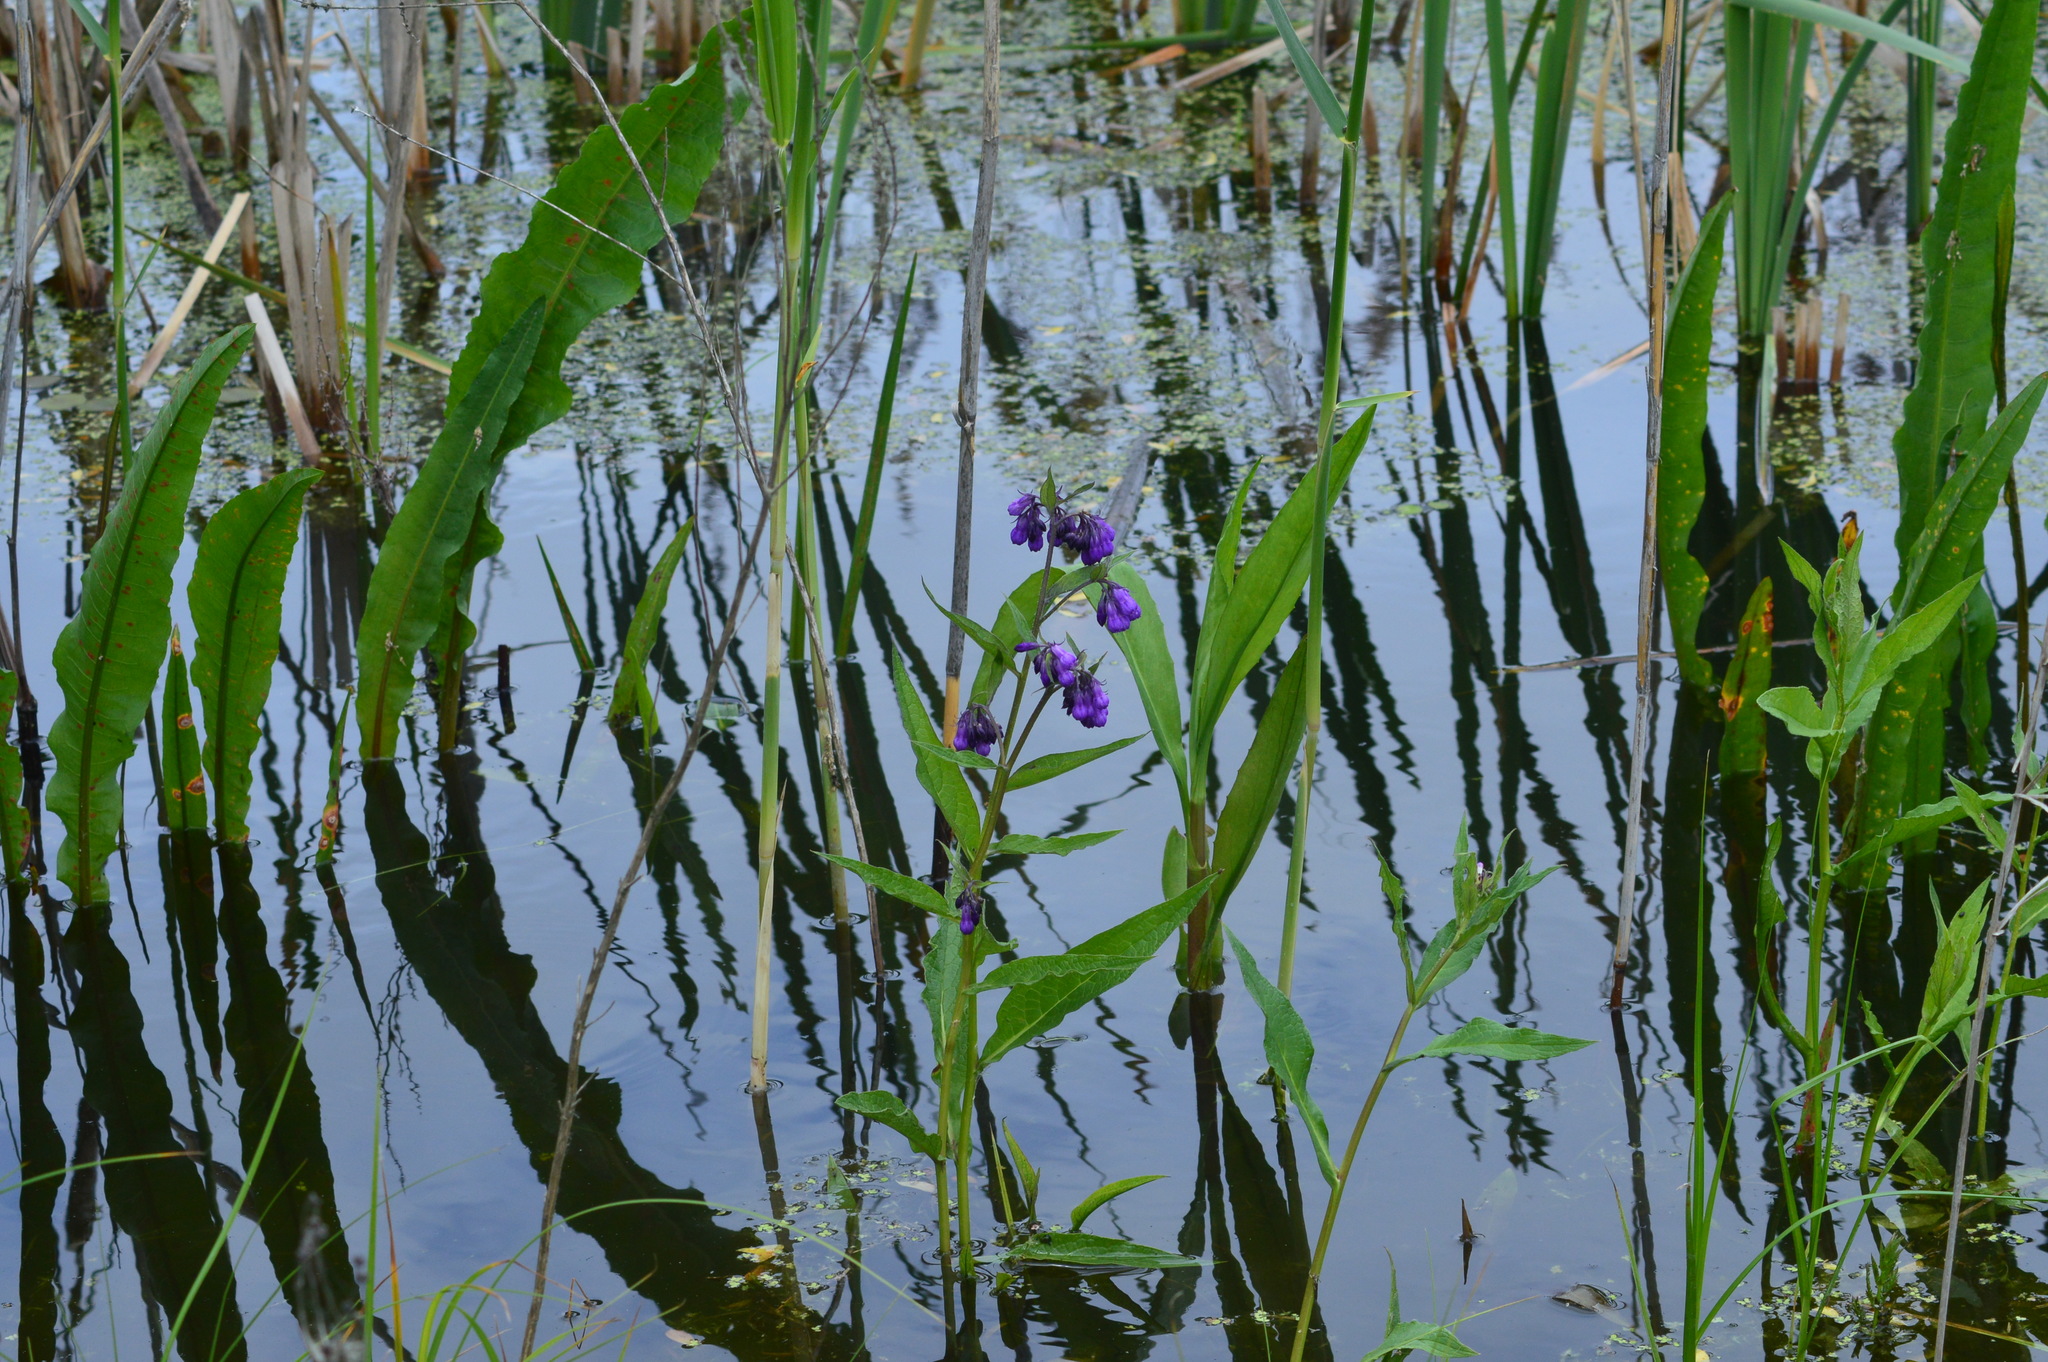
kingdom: Plantae
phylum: Tracheophyta
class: Magnoliopsida
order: Boraginales
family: Boraginaceae
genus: Symphytum
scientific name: Symphytum officinale
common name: Common comfrey
